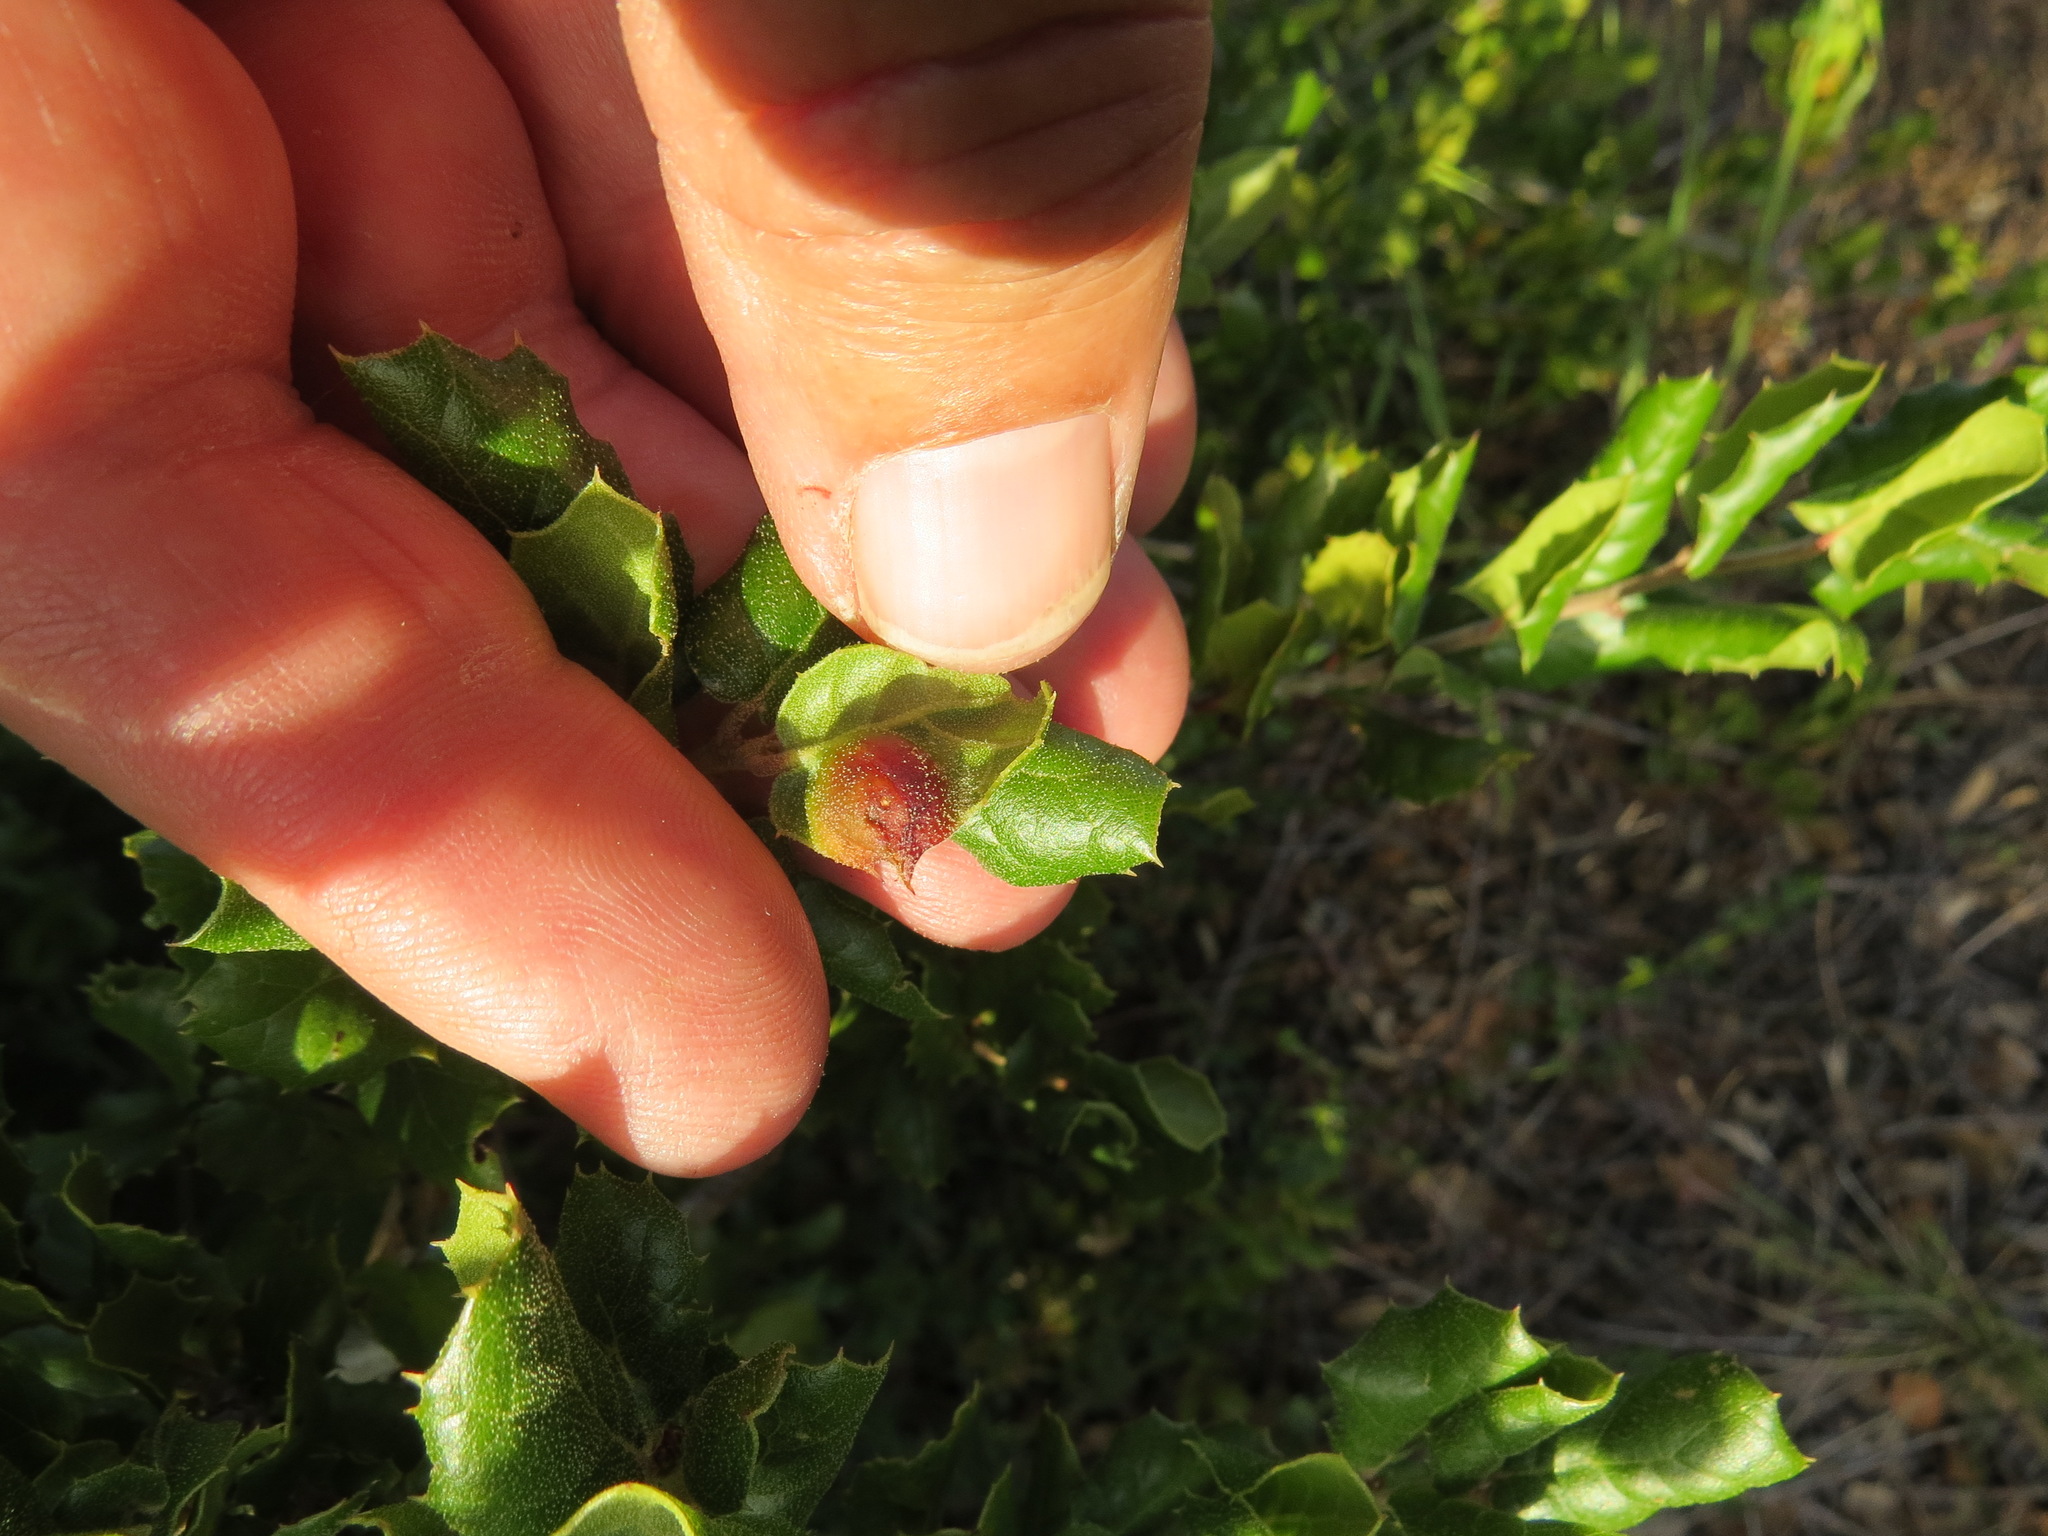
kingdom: Animalia
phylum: Arthropoda
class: Insecta
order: Hymenoptera
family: Cynipidae
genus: Callirhytis
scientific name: Callirhytis
